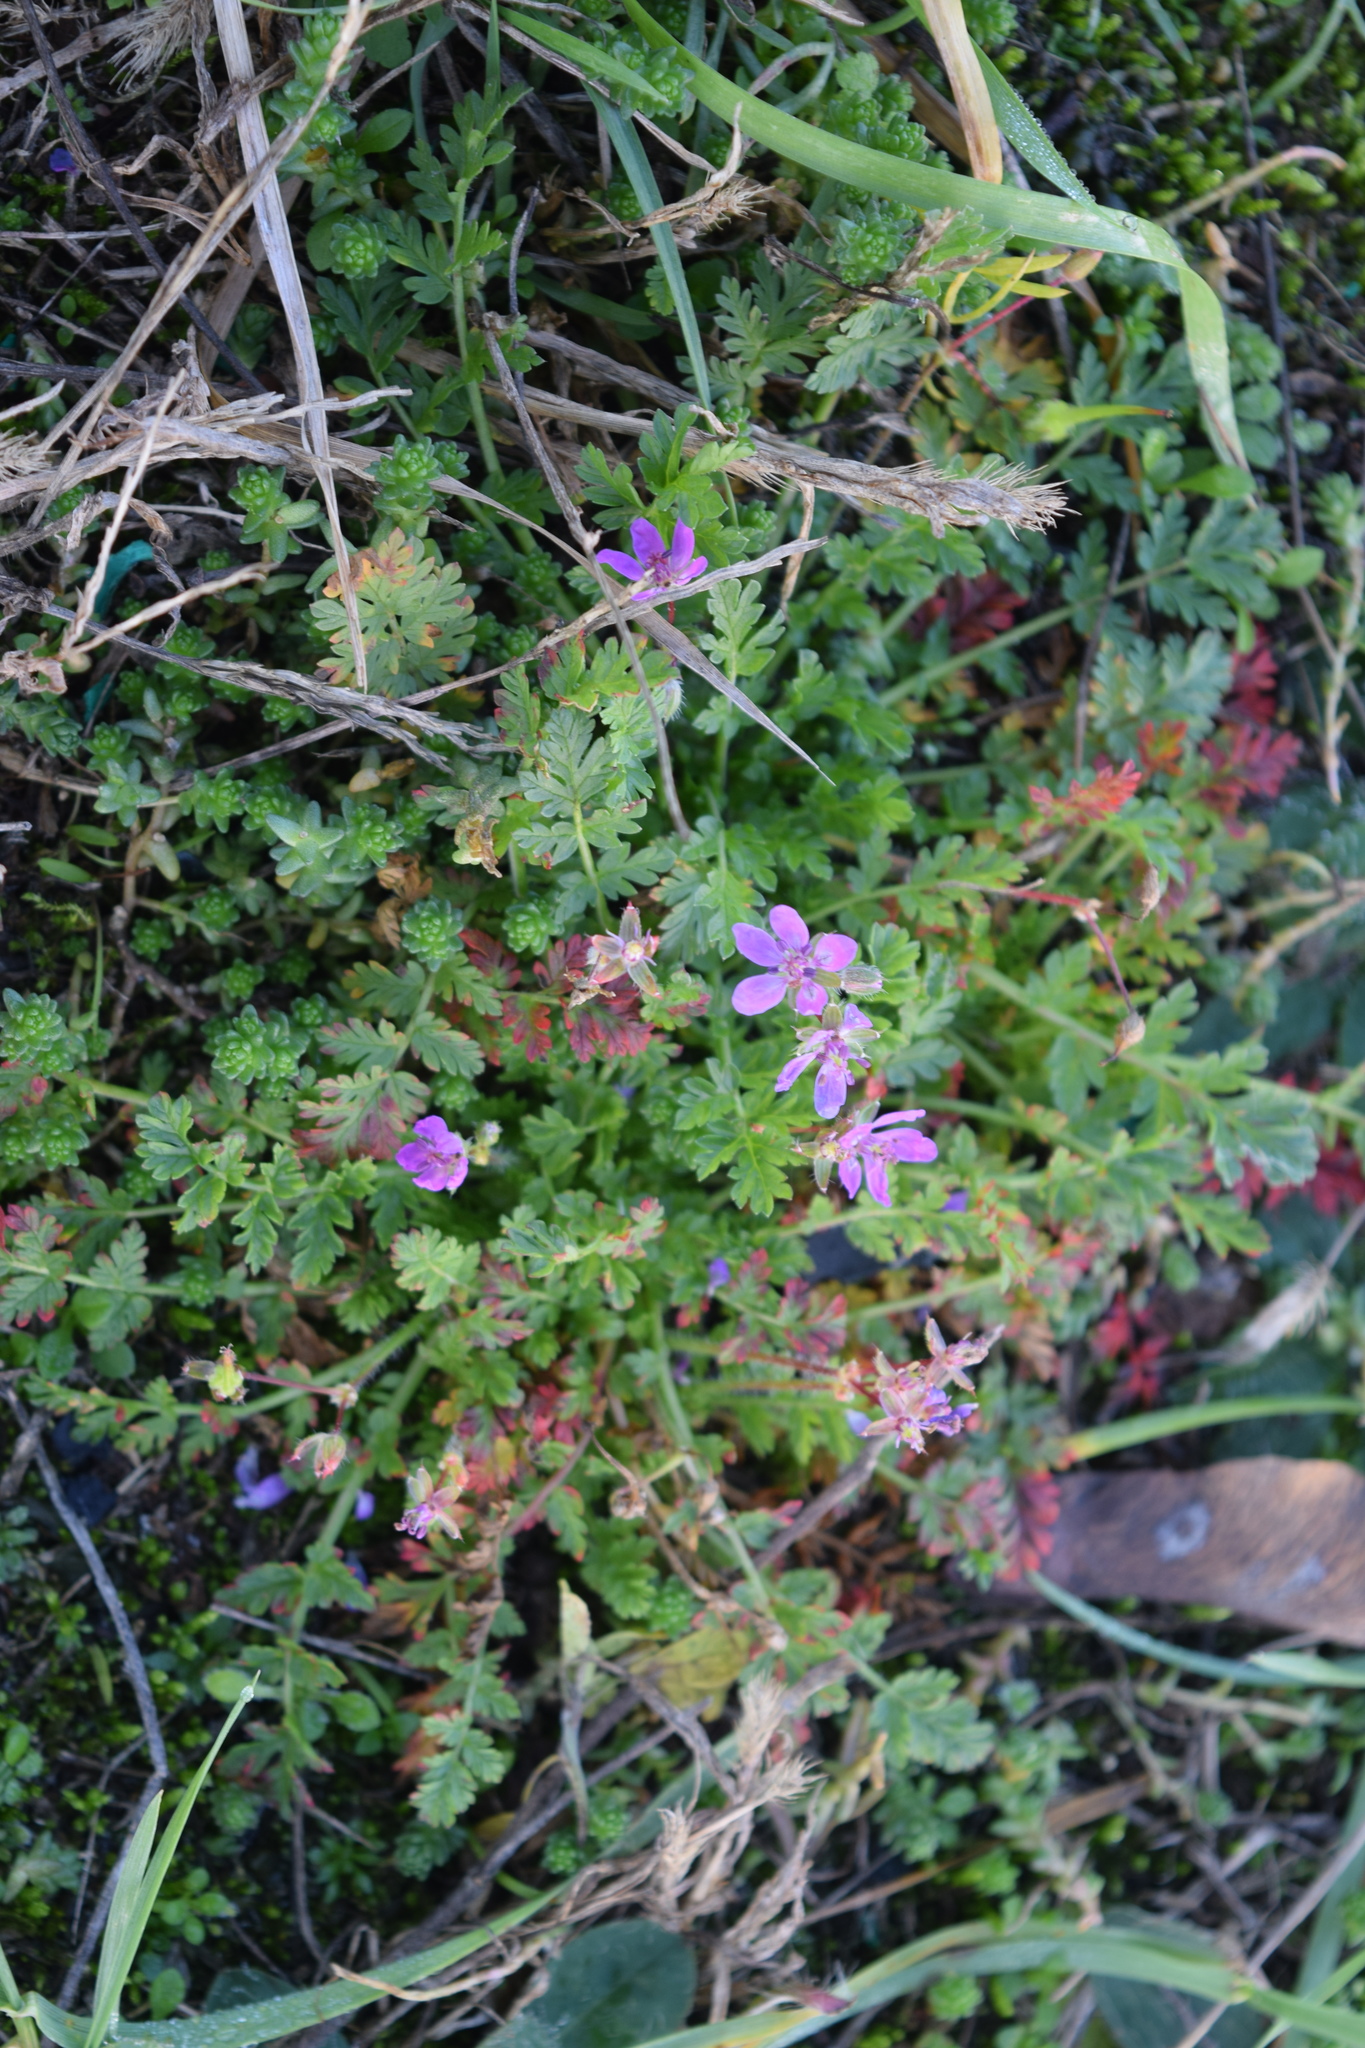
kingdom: Plantae
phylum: Tracheophyta
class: Magnoliopsida
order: Geraniales
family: Geraniaceae
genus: Erodium
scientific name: Erodium cicutarium
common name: Common stork's-bill
